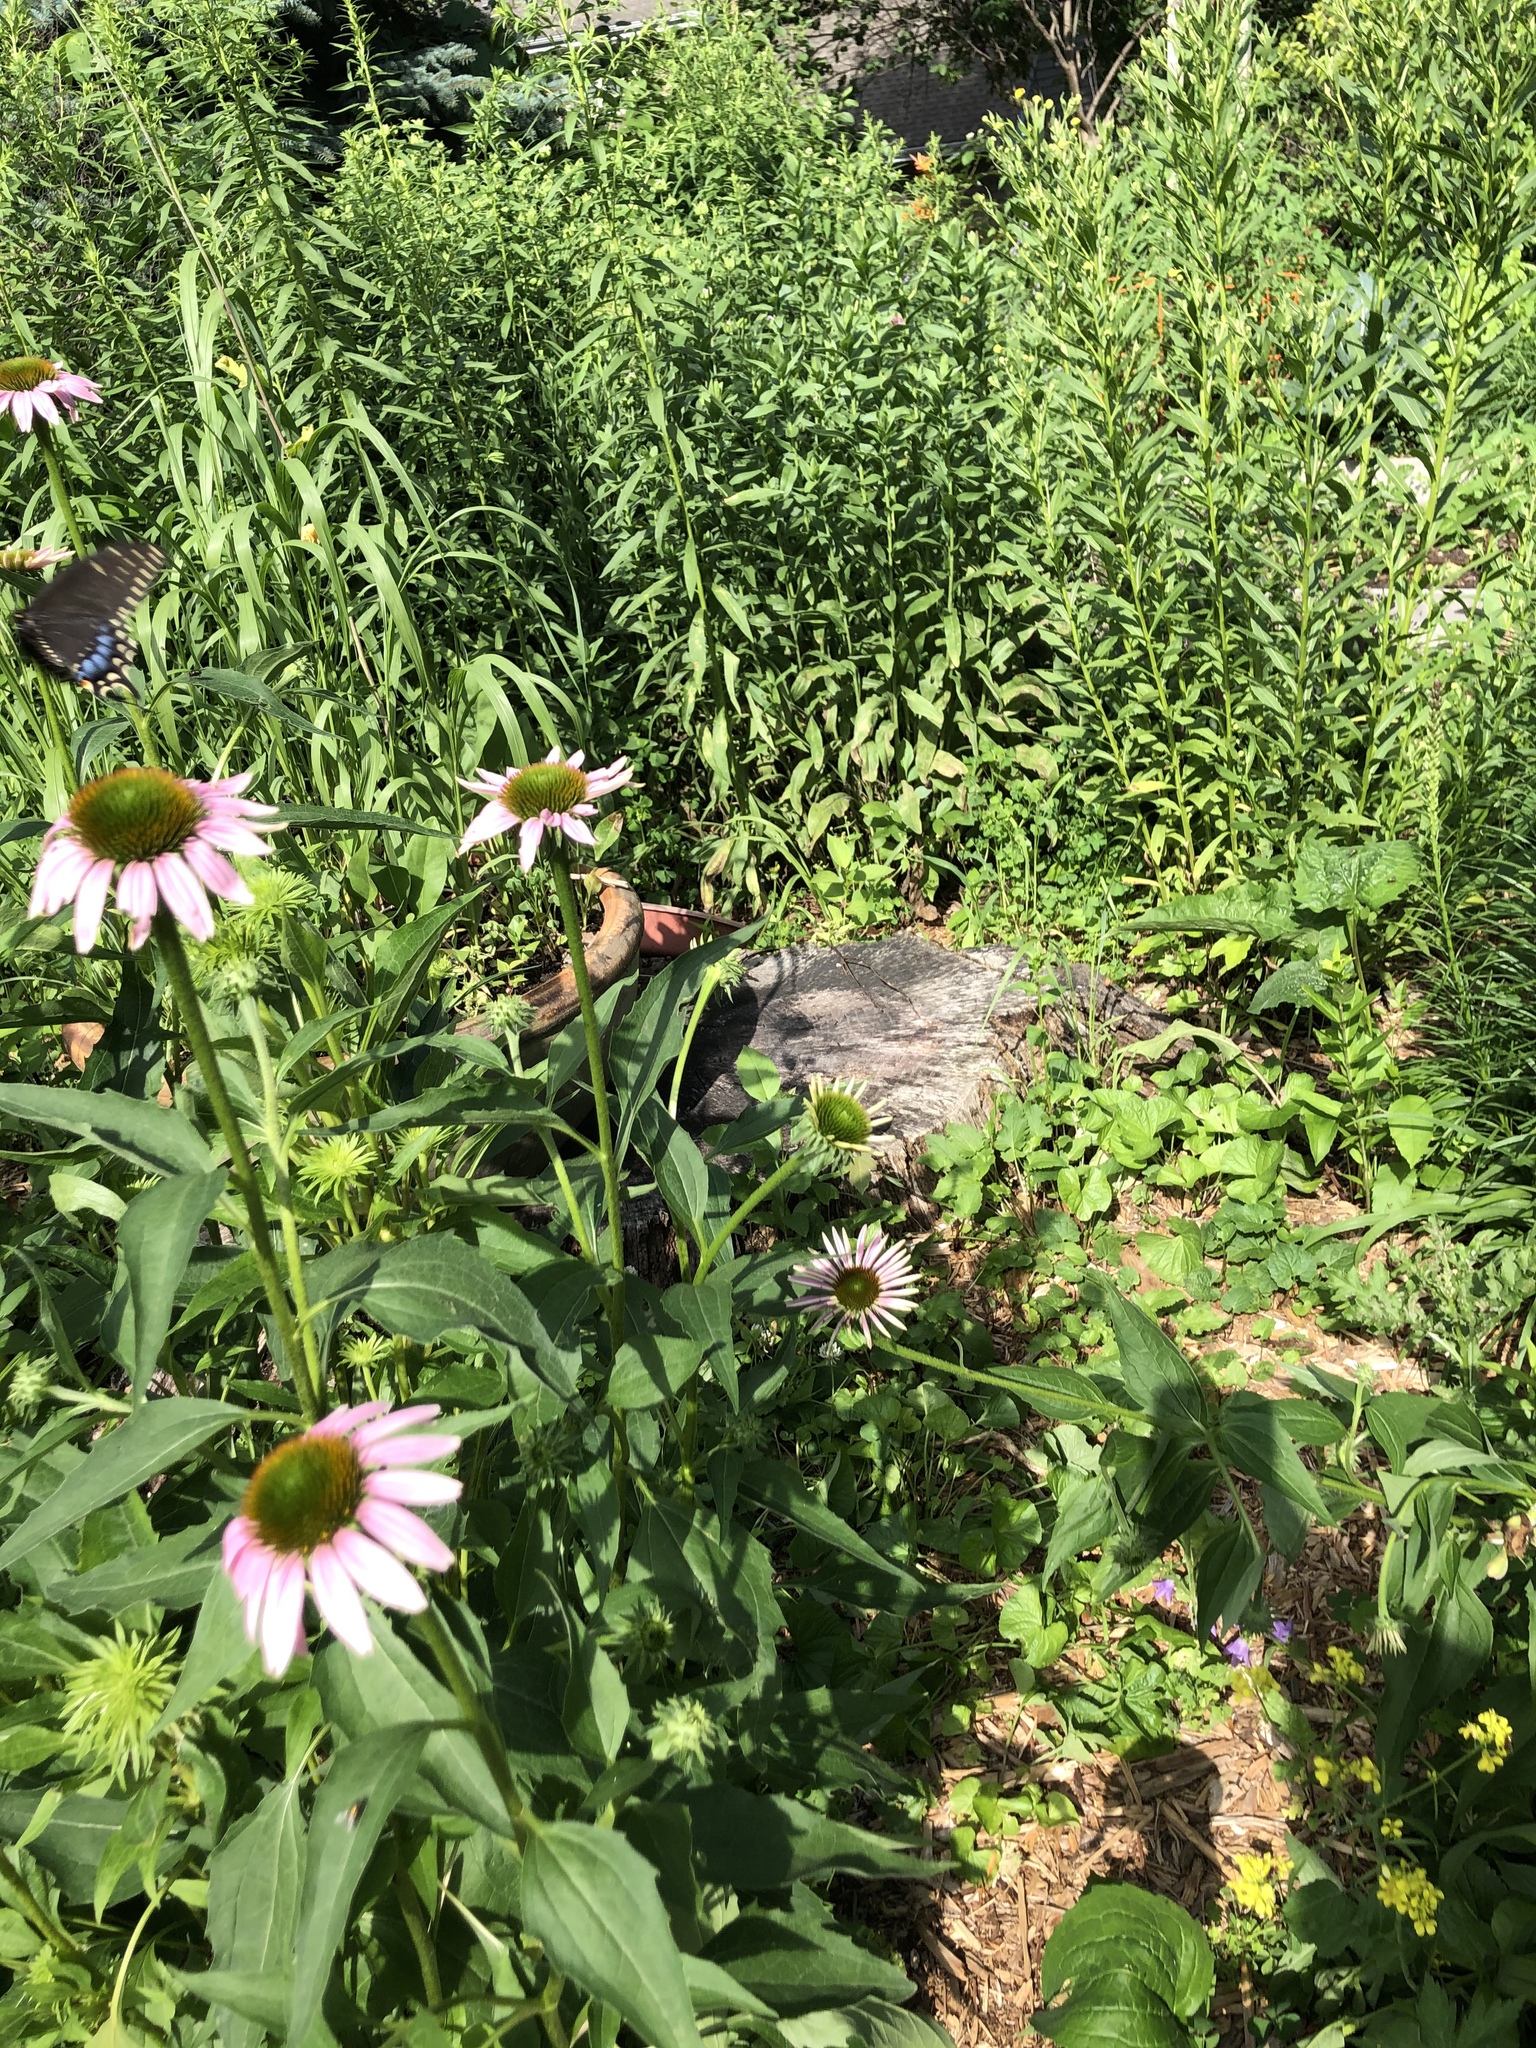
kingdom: Animalia
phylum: Arthropoda
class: Insecta
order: Lepidoptera
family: Papilionidae
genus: Papilio
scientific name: Papilio polyxenes
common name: Black swallowtail
